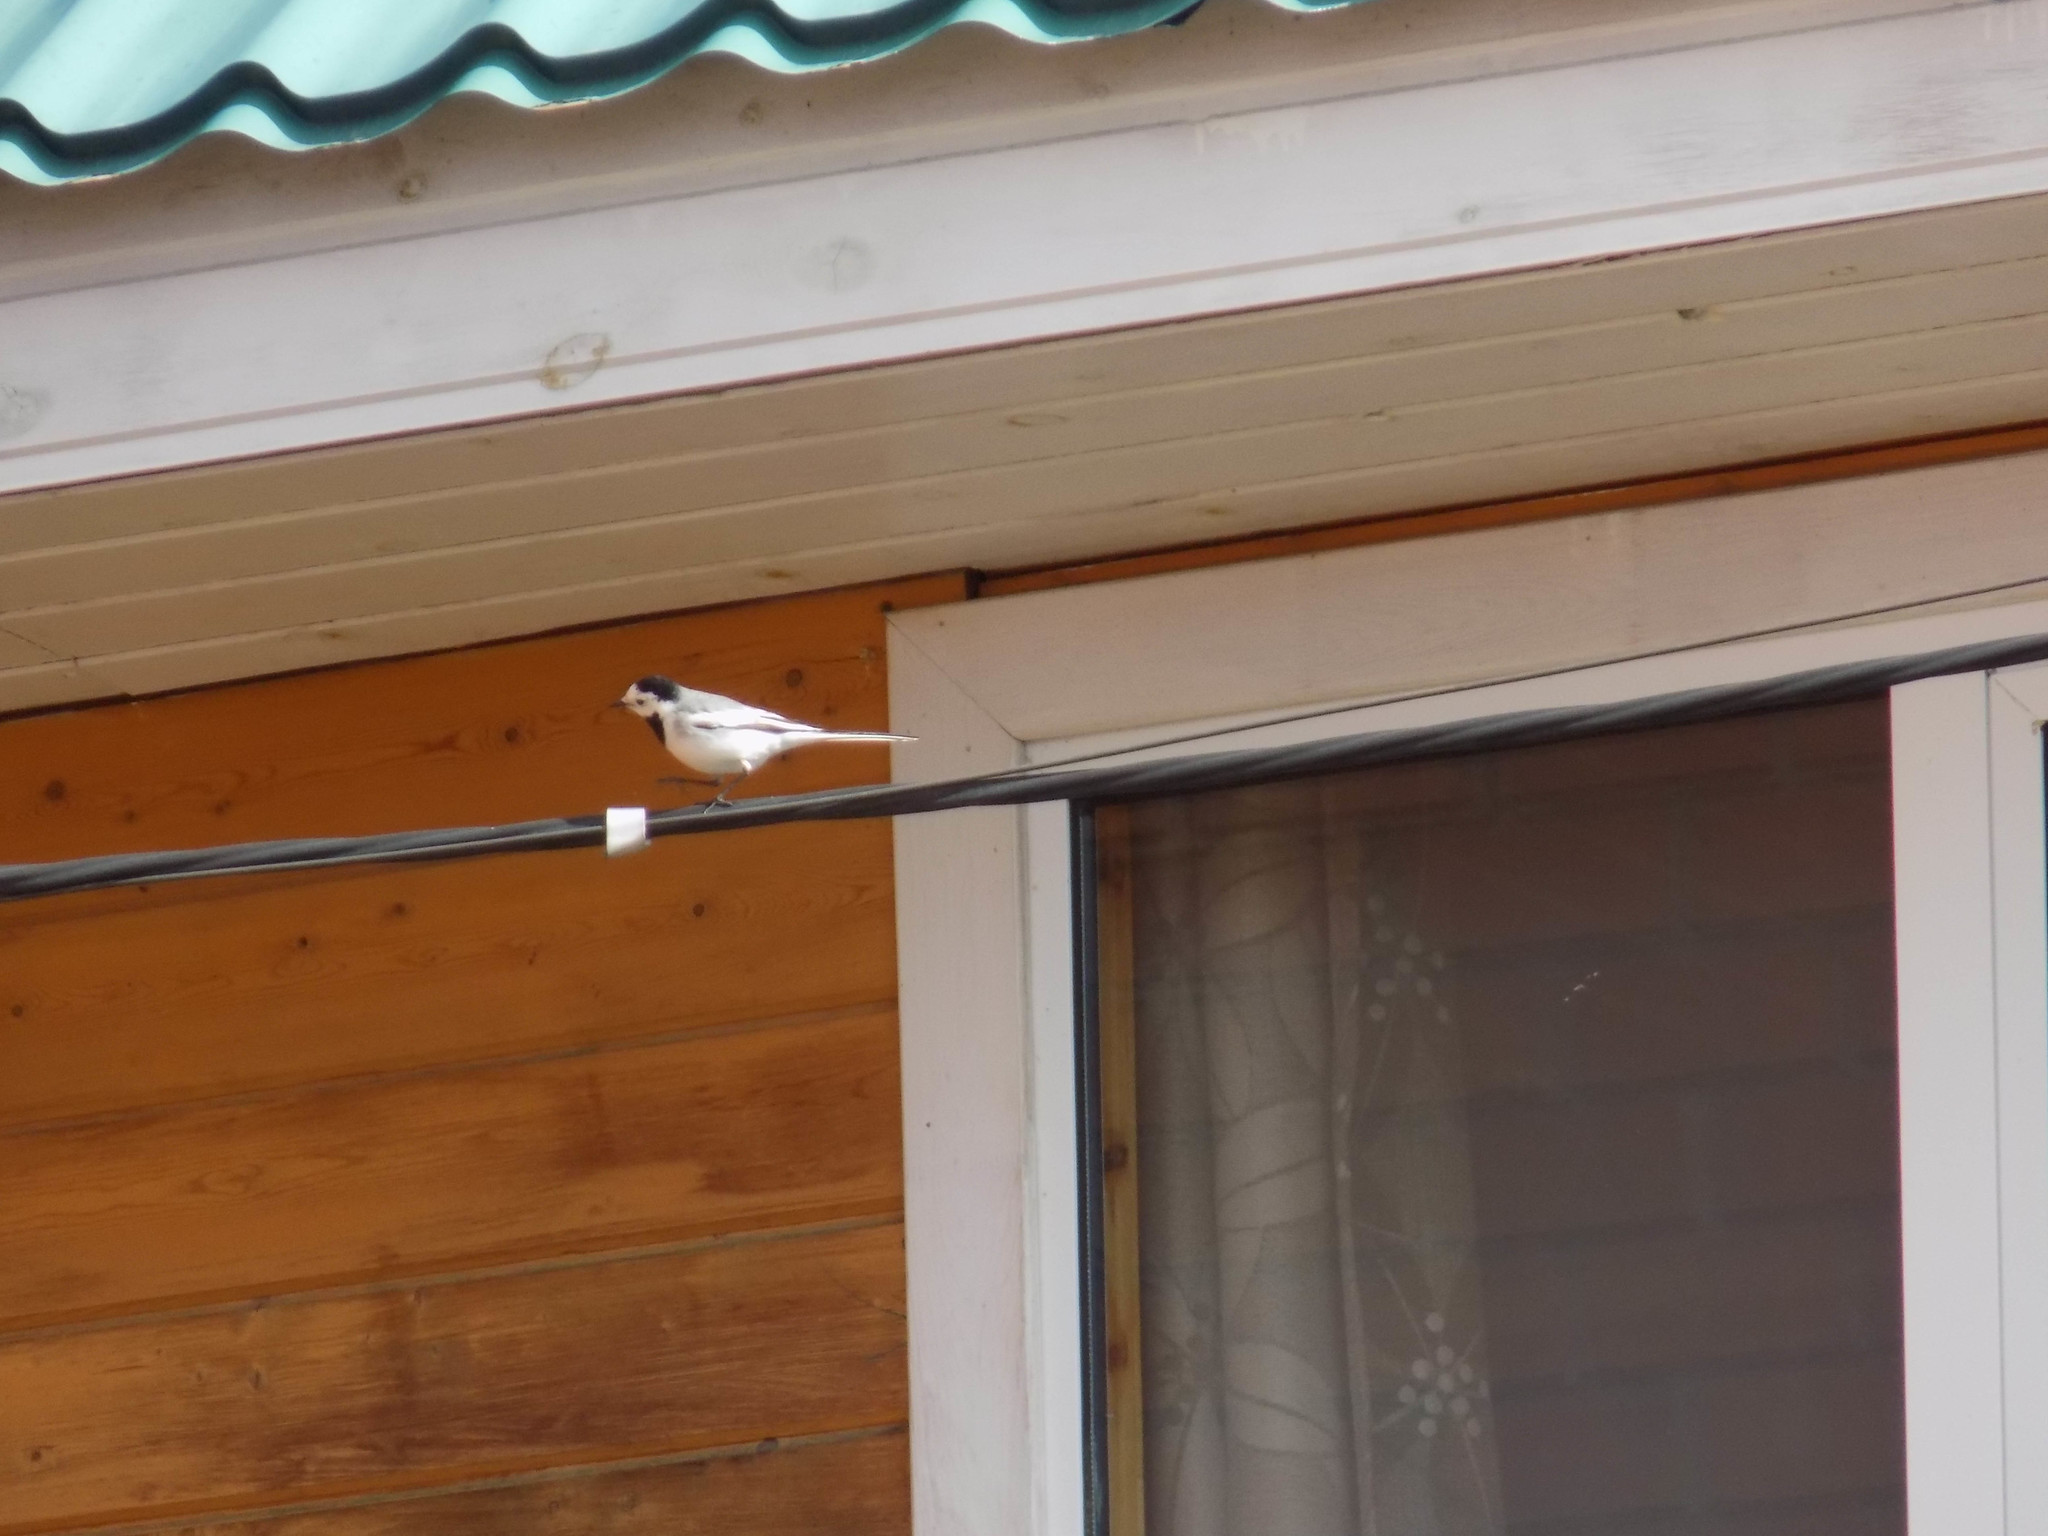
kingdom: Animalia
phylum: Chordata
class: Aves
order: Passeriformes
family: Motacillidae
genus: Motacilla
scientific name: Motacilla alba
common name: White wagtail
